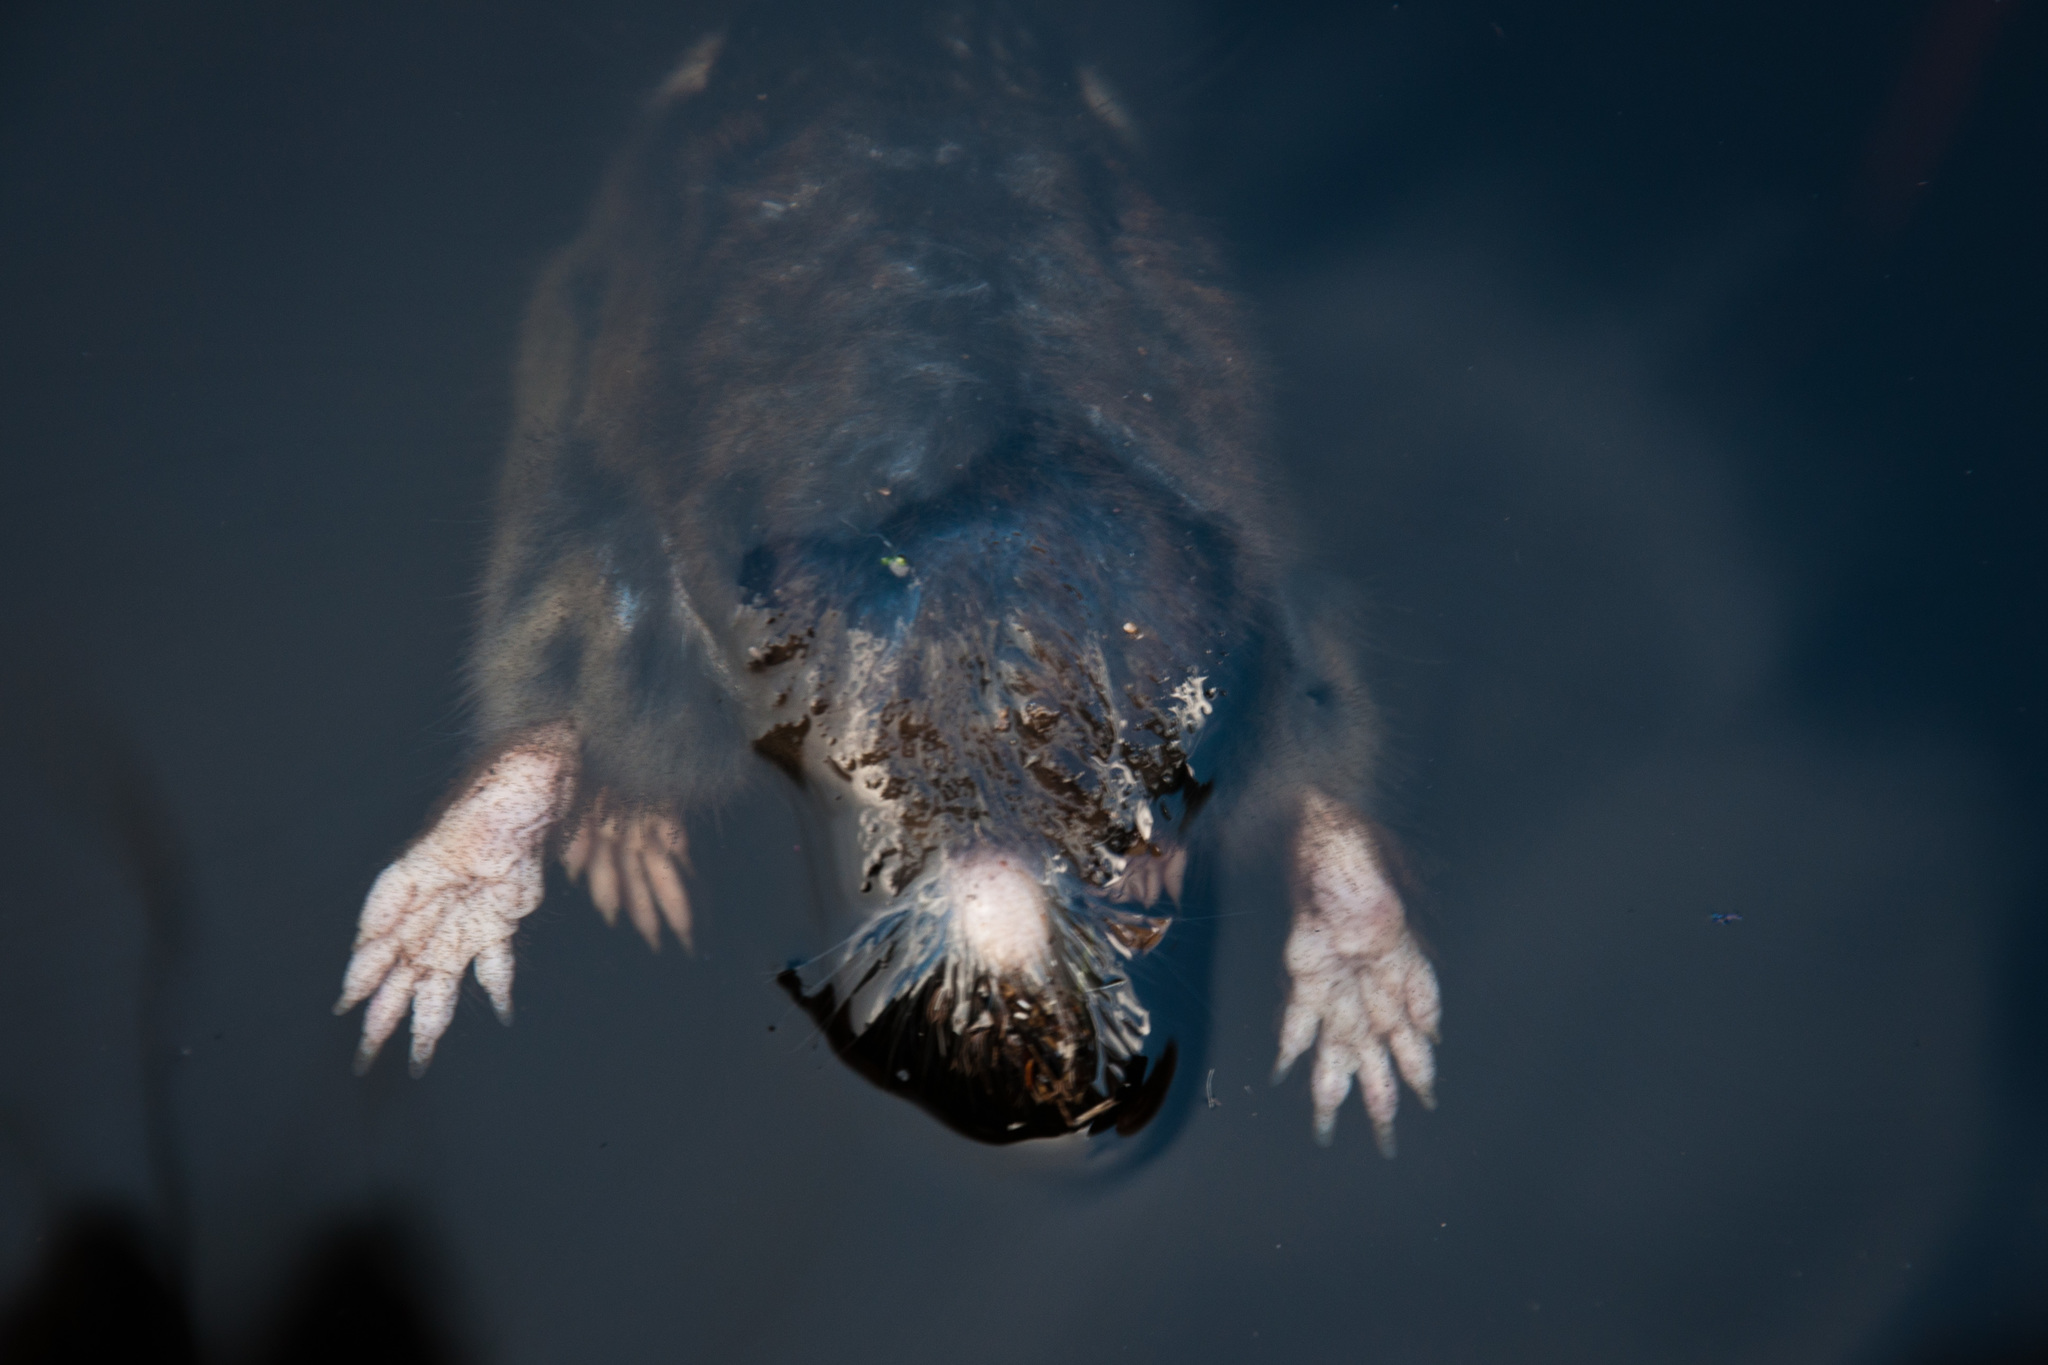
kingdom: Animalia
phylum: Chordata
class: Mammalia
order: Rodentia
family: Bathyergidae
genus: Georychus
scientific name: Georychus capensis
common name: Cape mole-rat
